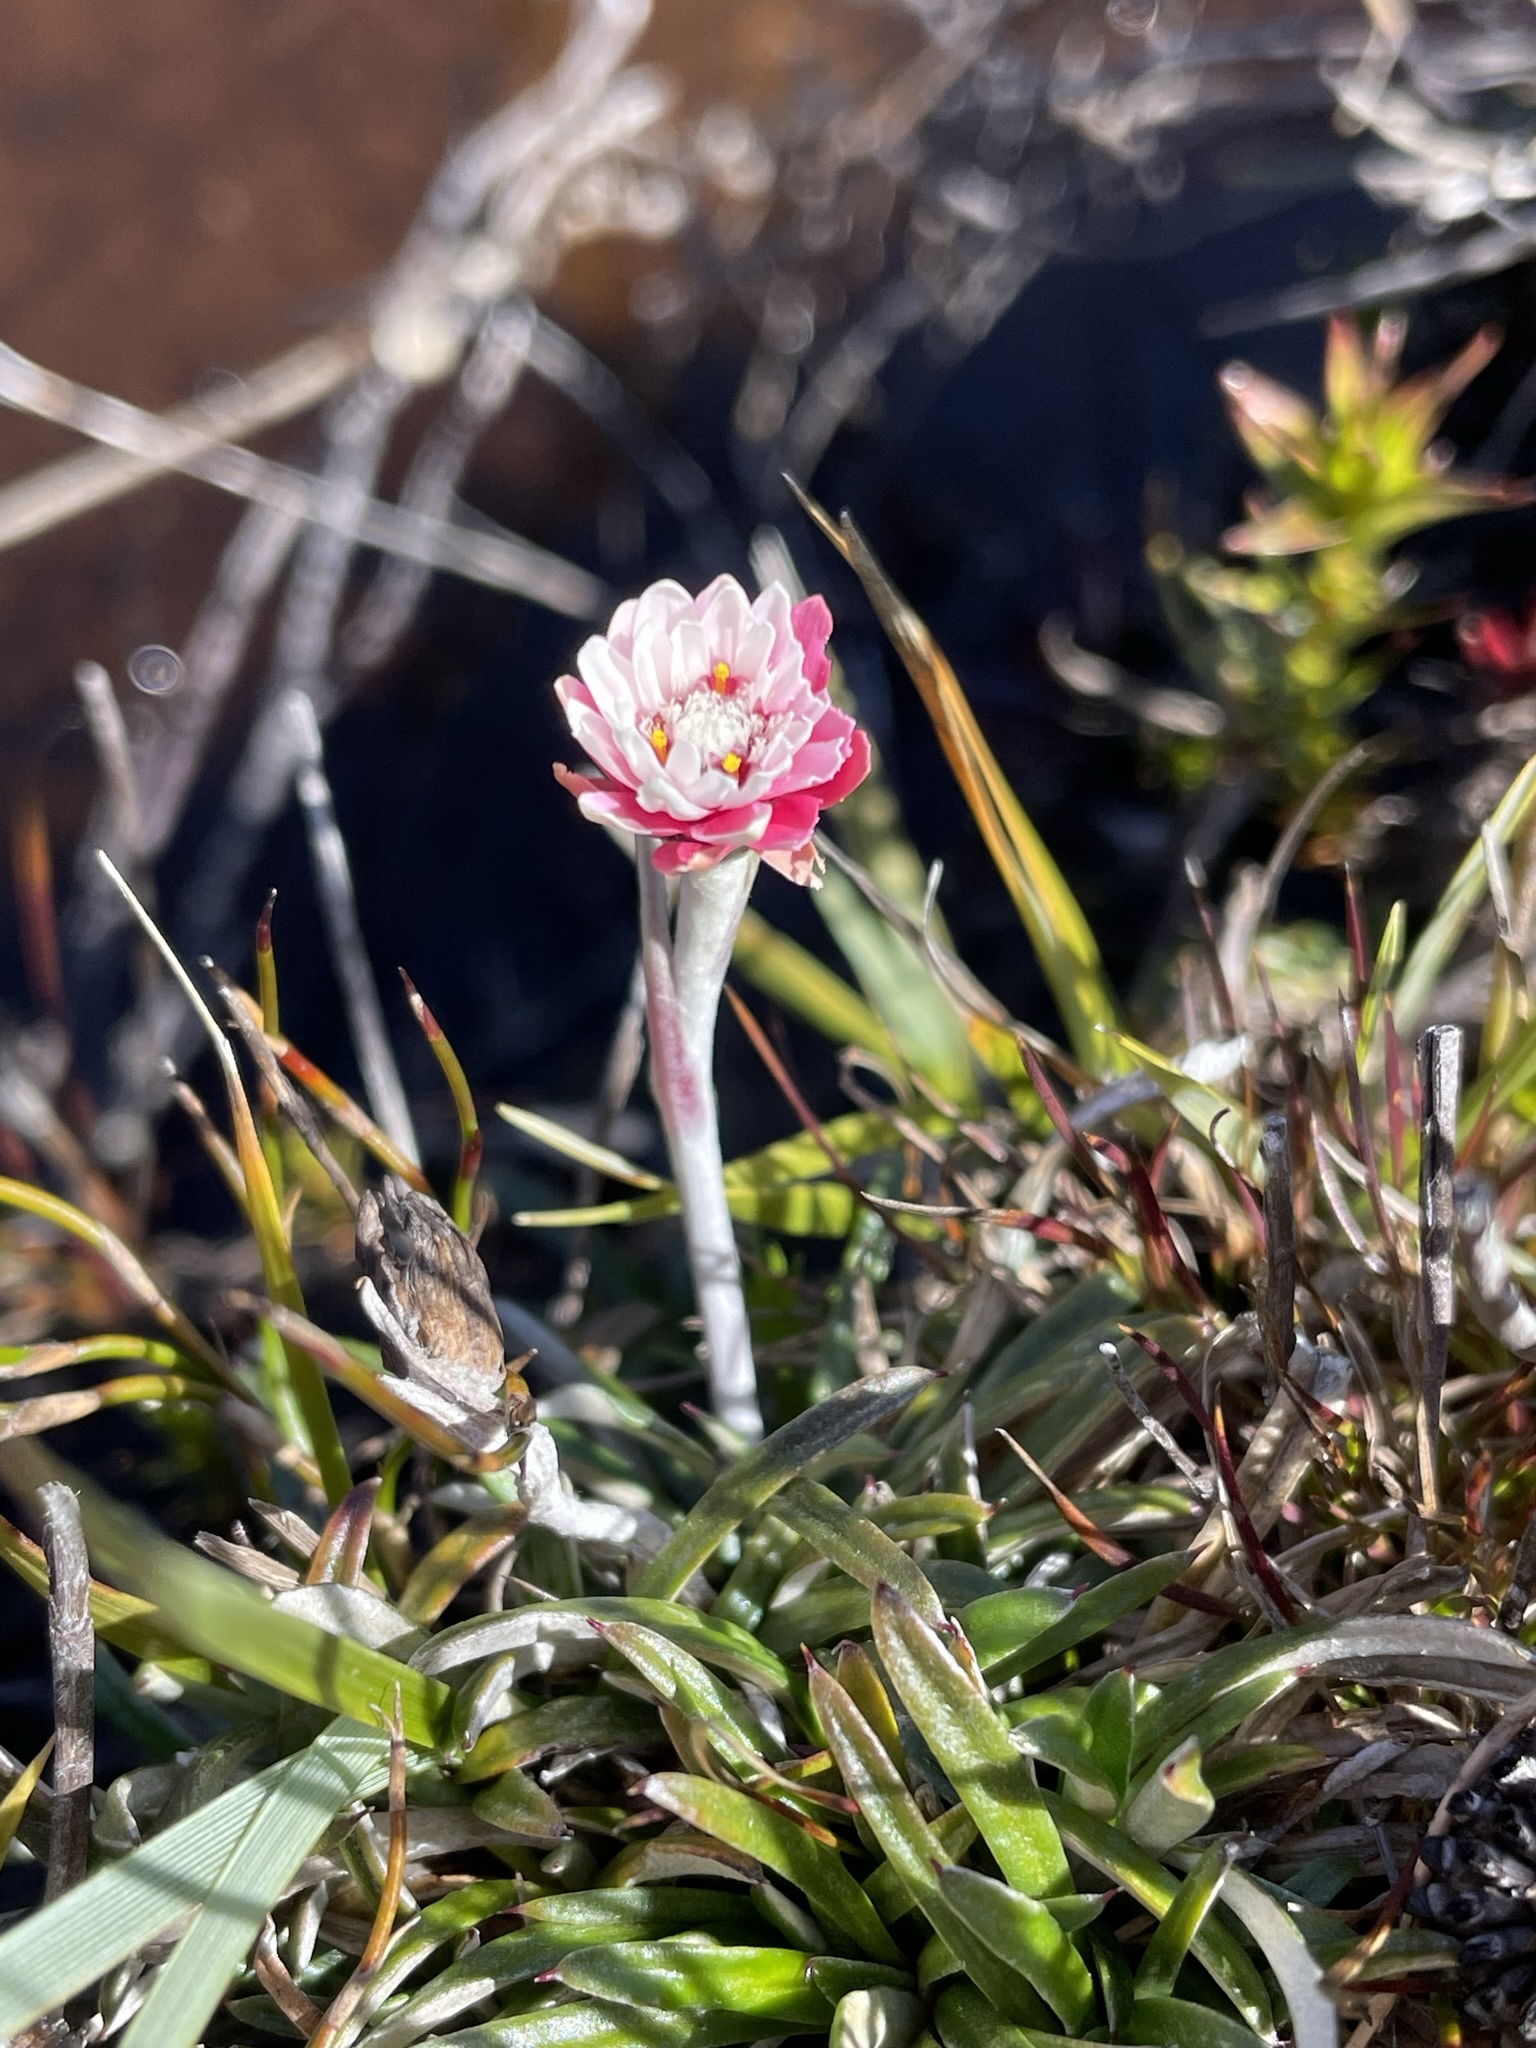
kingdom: Plantae
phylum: Tracheophyta
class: Magnoliopsida
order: Asterales
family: Asteraceae
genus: Helichrysum
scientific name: Helichrysum pumilum
